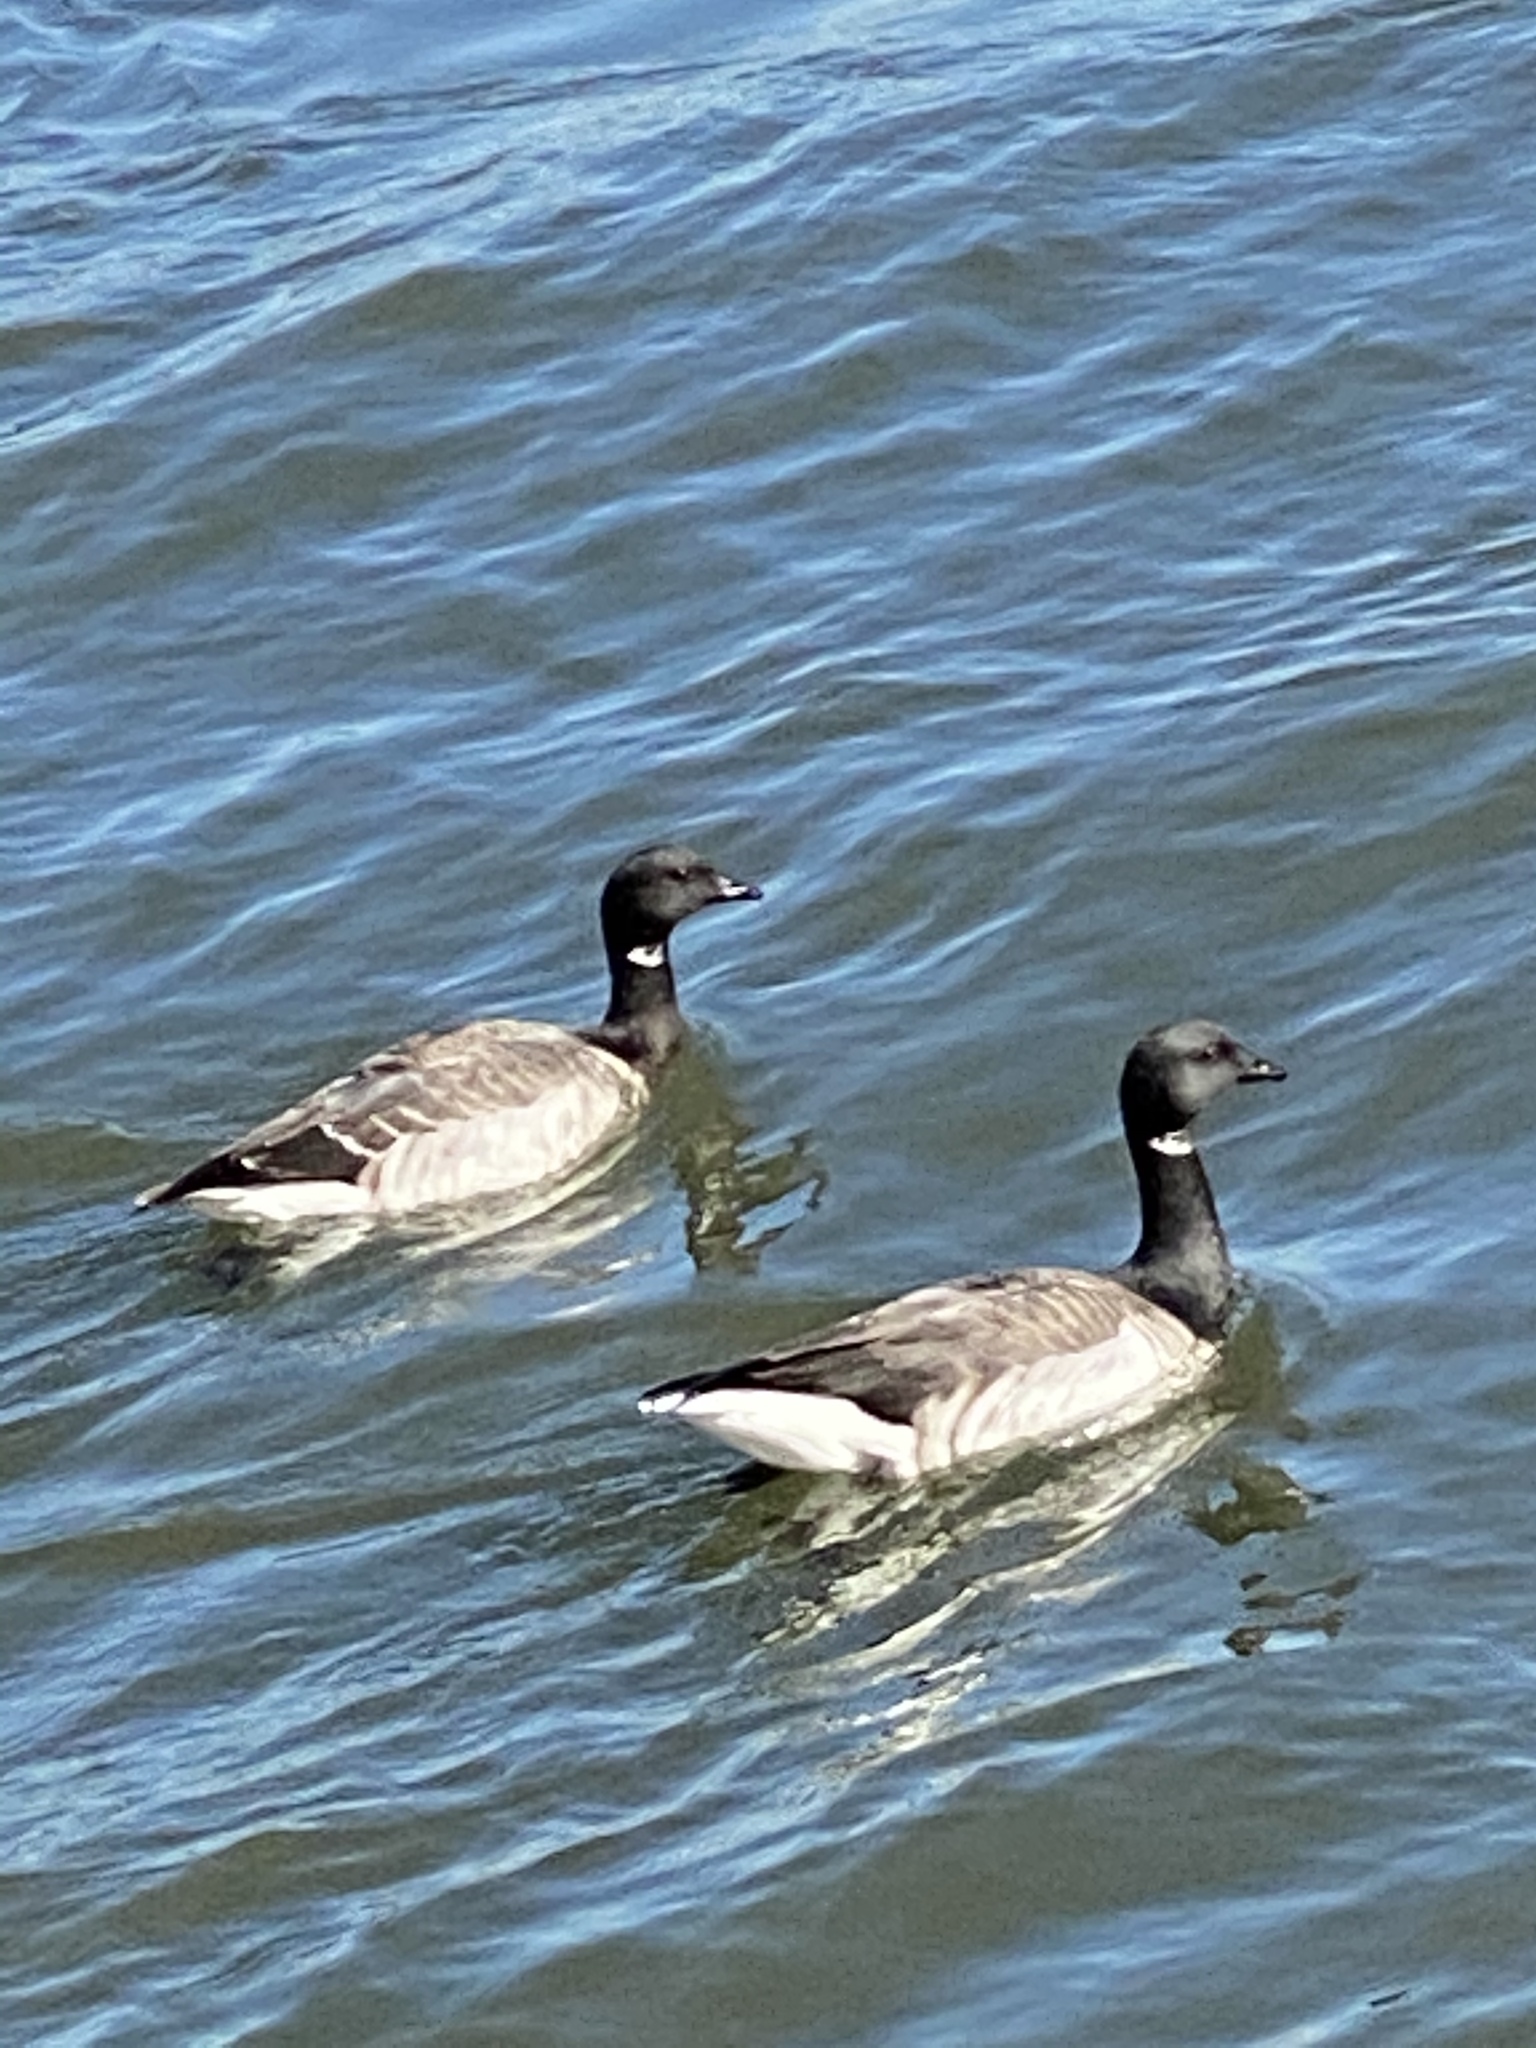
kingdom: Animalia
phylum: Chordata
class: Aves
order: Anseriformes
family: Anatidae
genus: Branta
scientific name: Branta bernicla
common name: Brant goose
